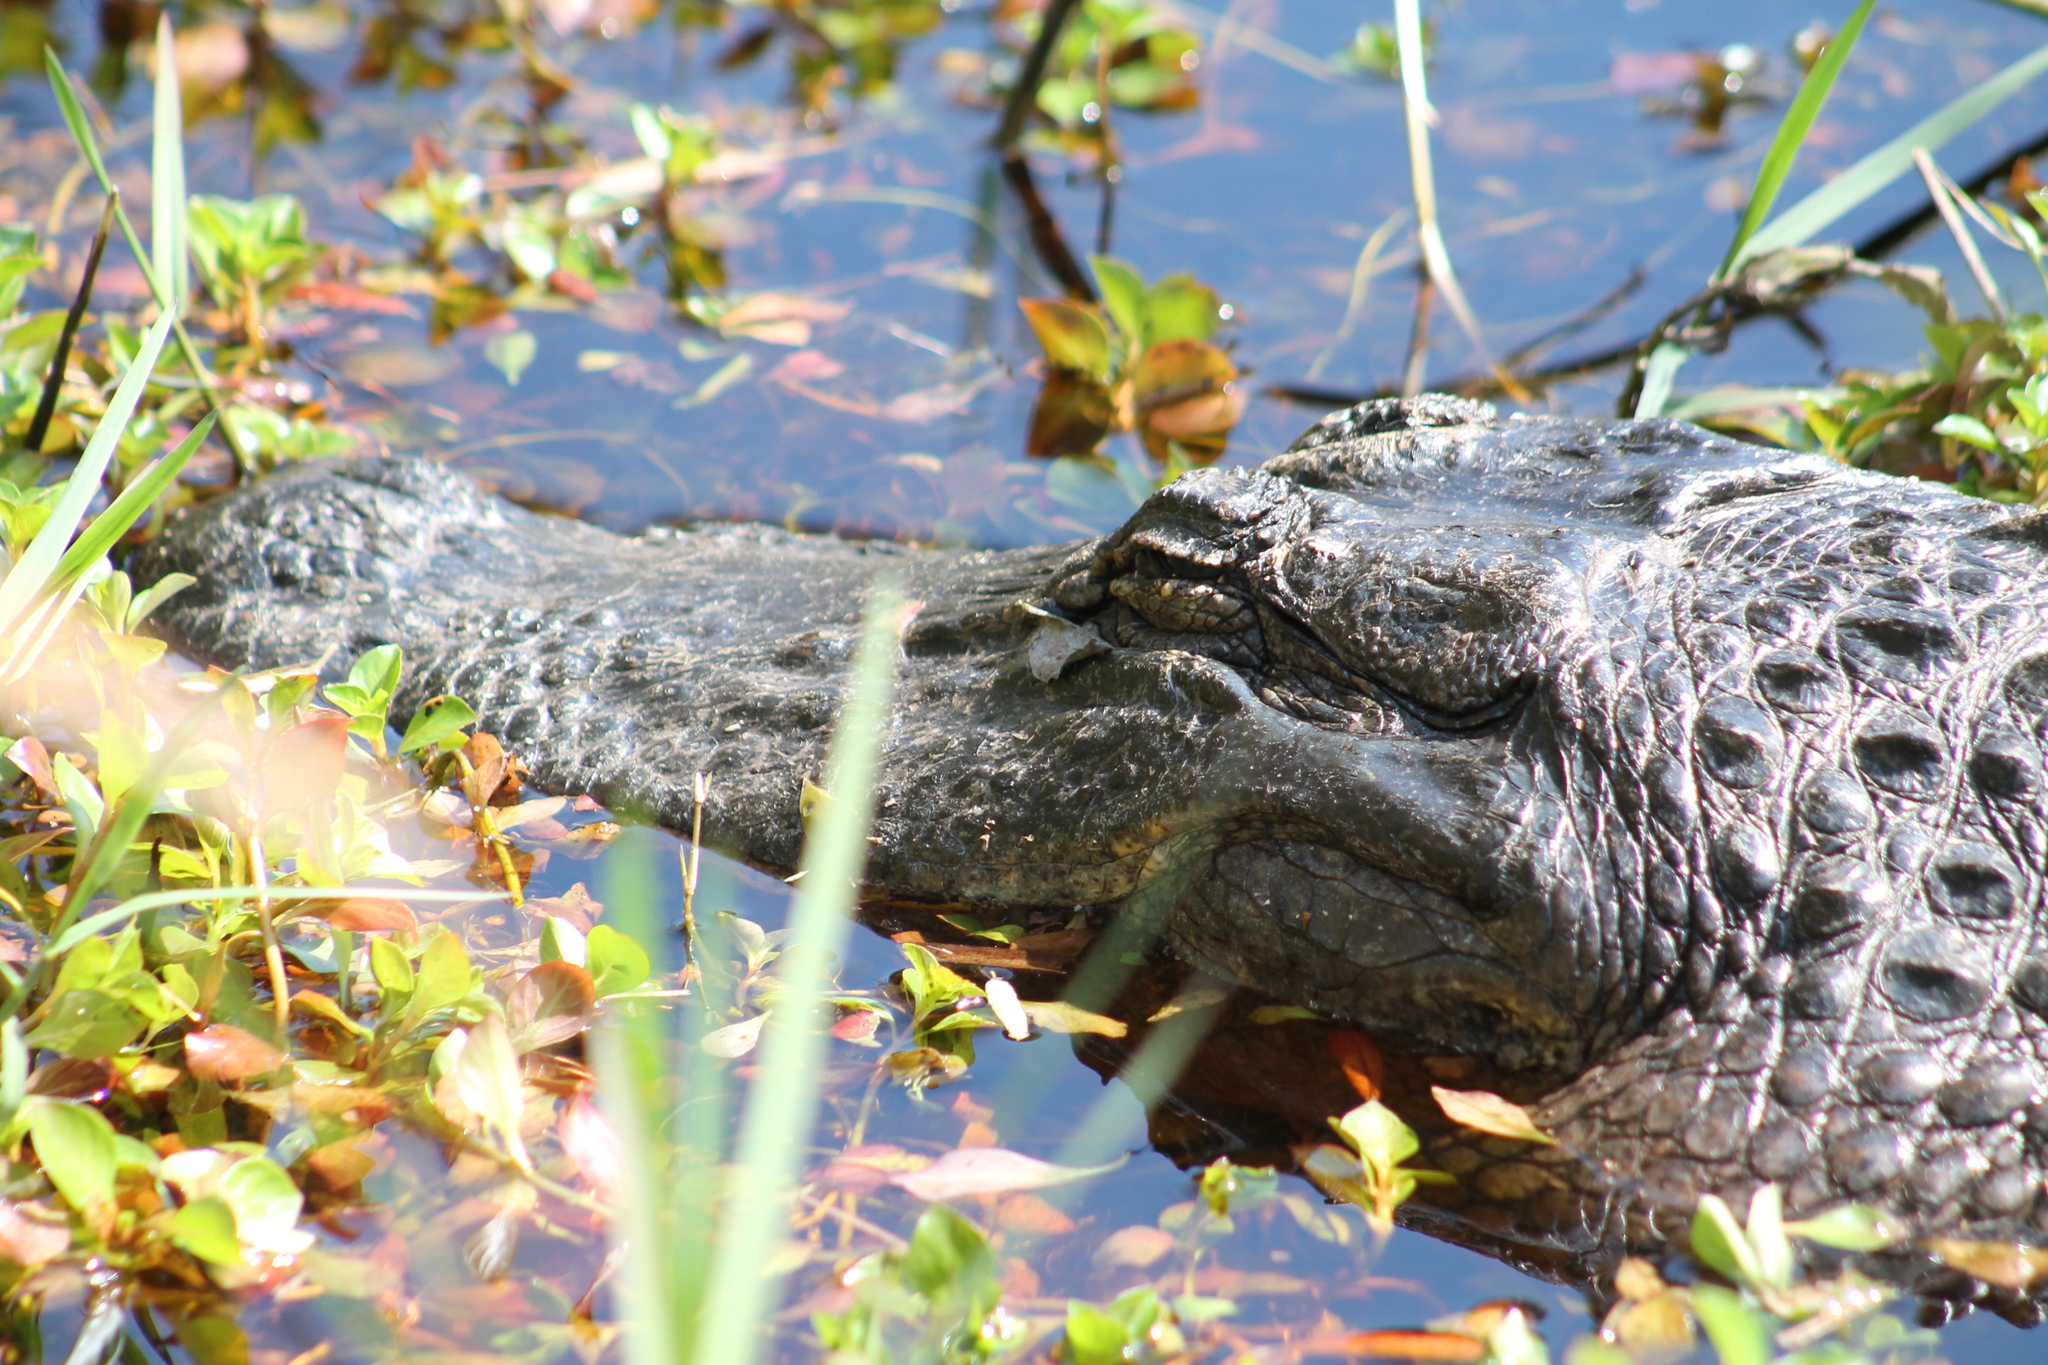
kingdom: Animalia
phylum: Chordata
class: Crocodylia
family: Alligatoridae
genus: Alligator
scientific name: Alligator mississippiensis
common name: American alligator
